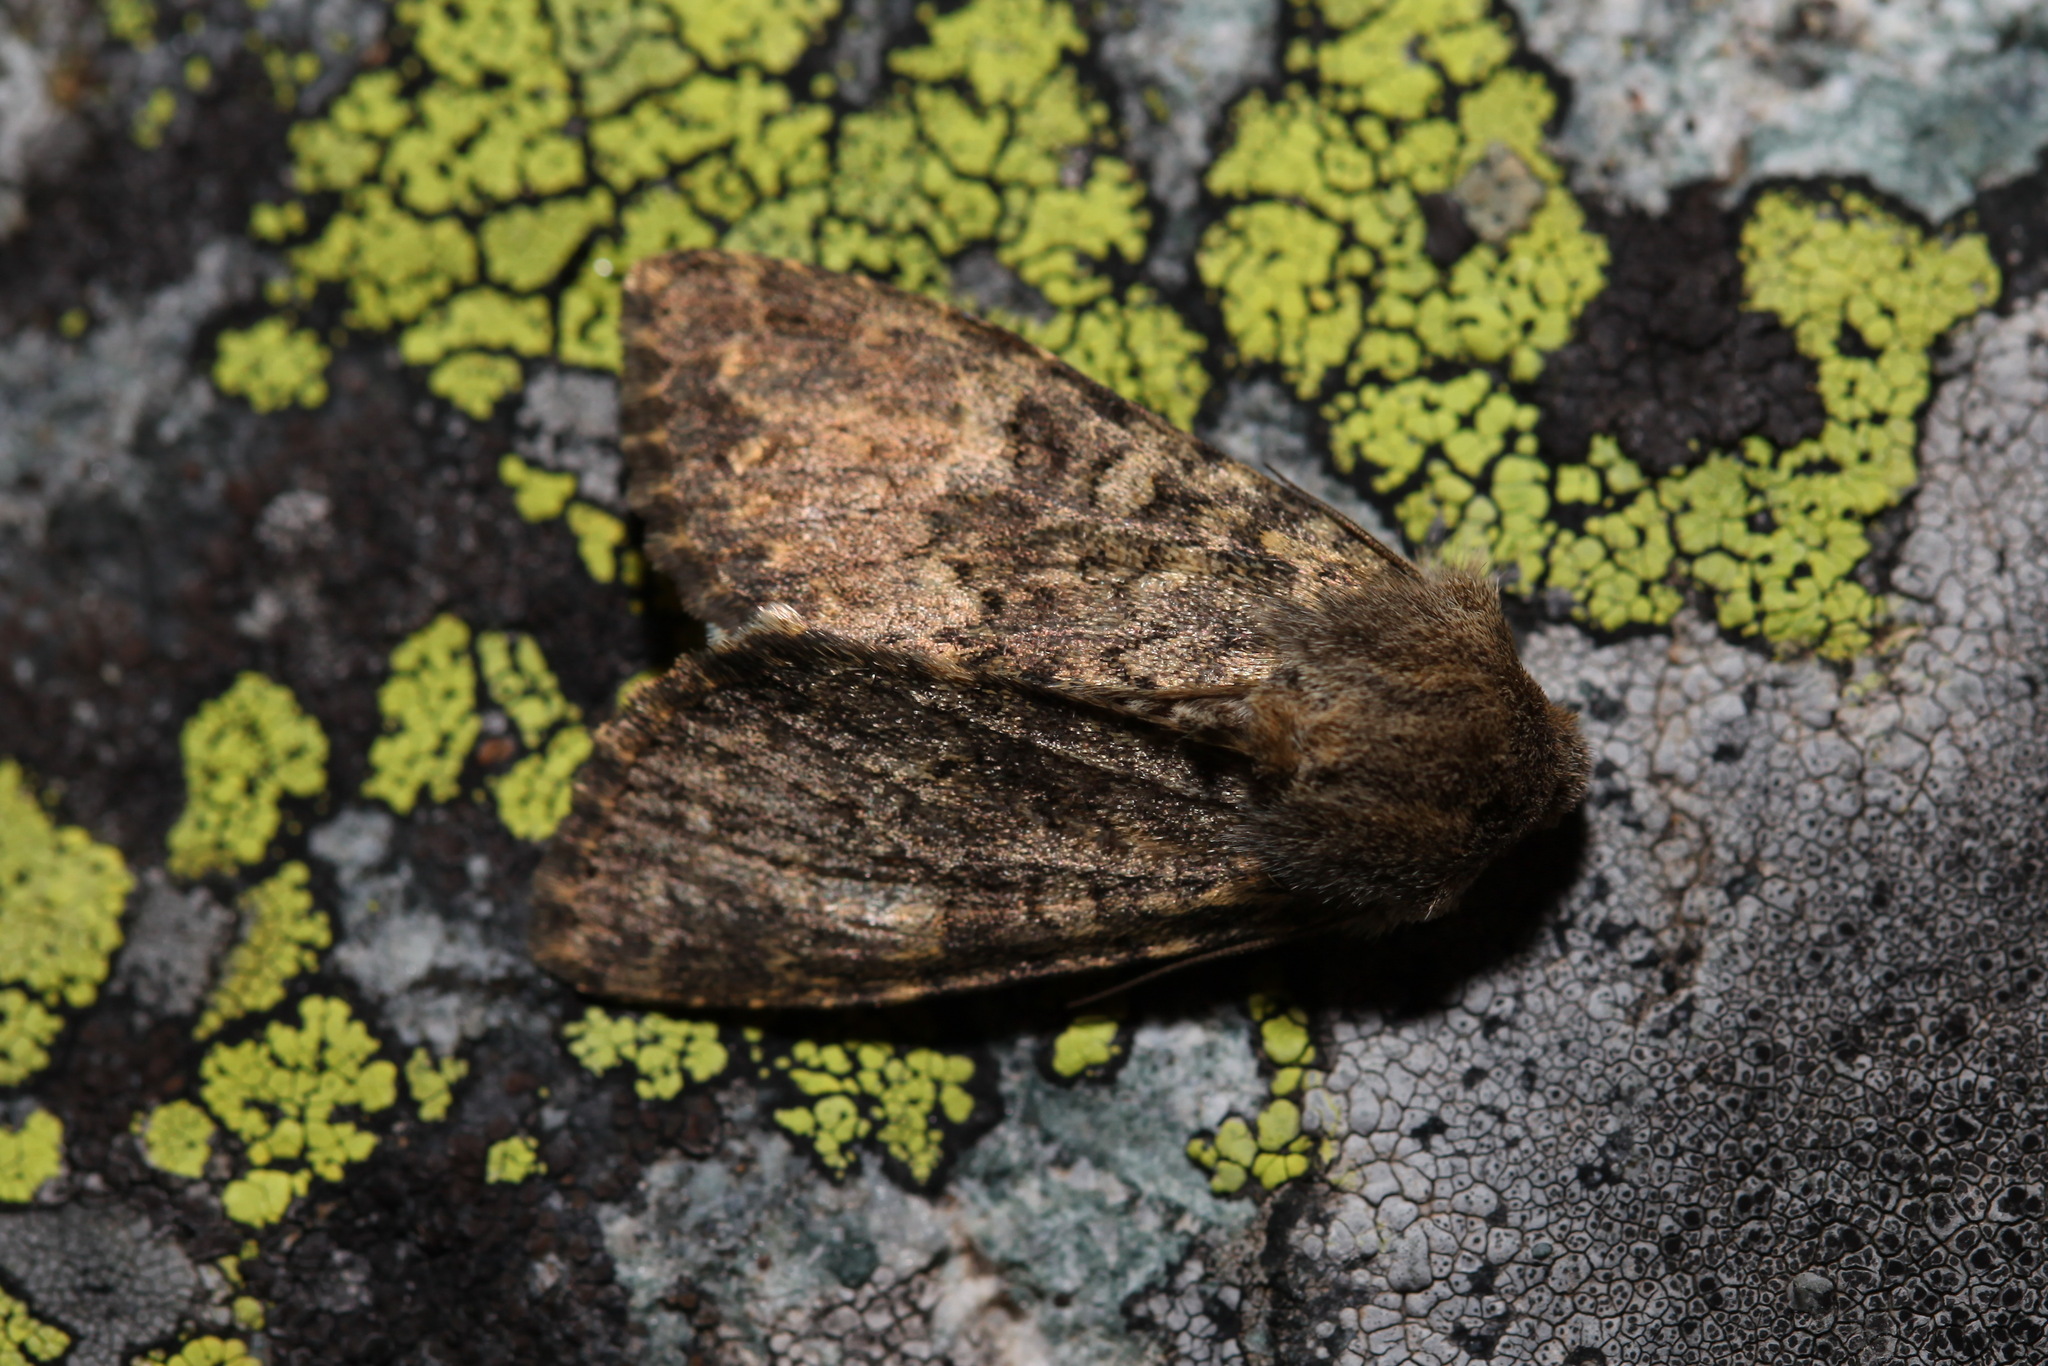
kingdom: Animalia
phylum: Arthropoda
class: Insecta
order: Lepidoptera
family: Noctuidae
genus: Apamea
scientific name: Apamea ingloria
